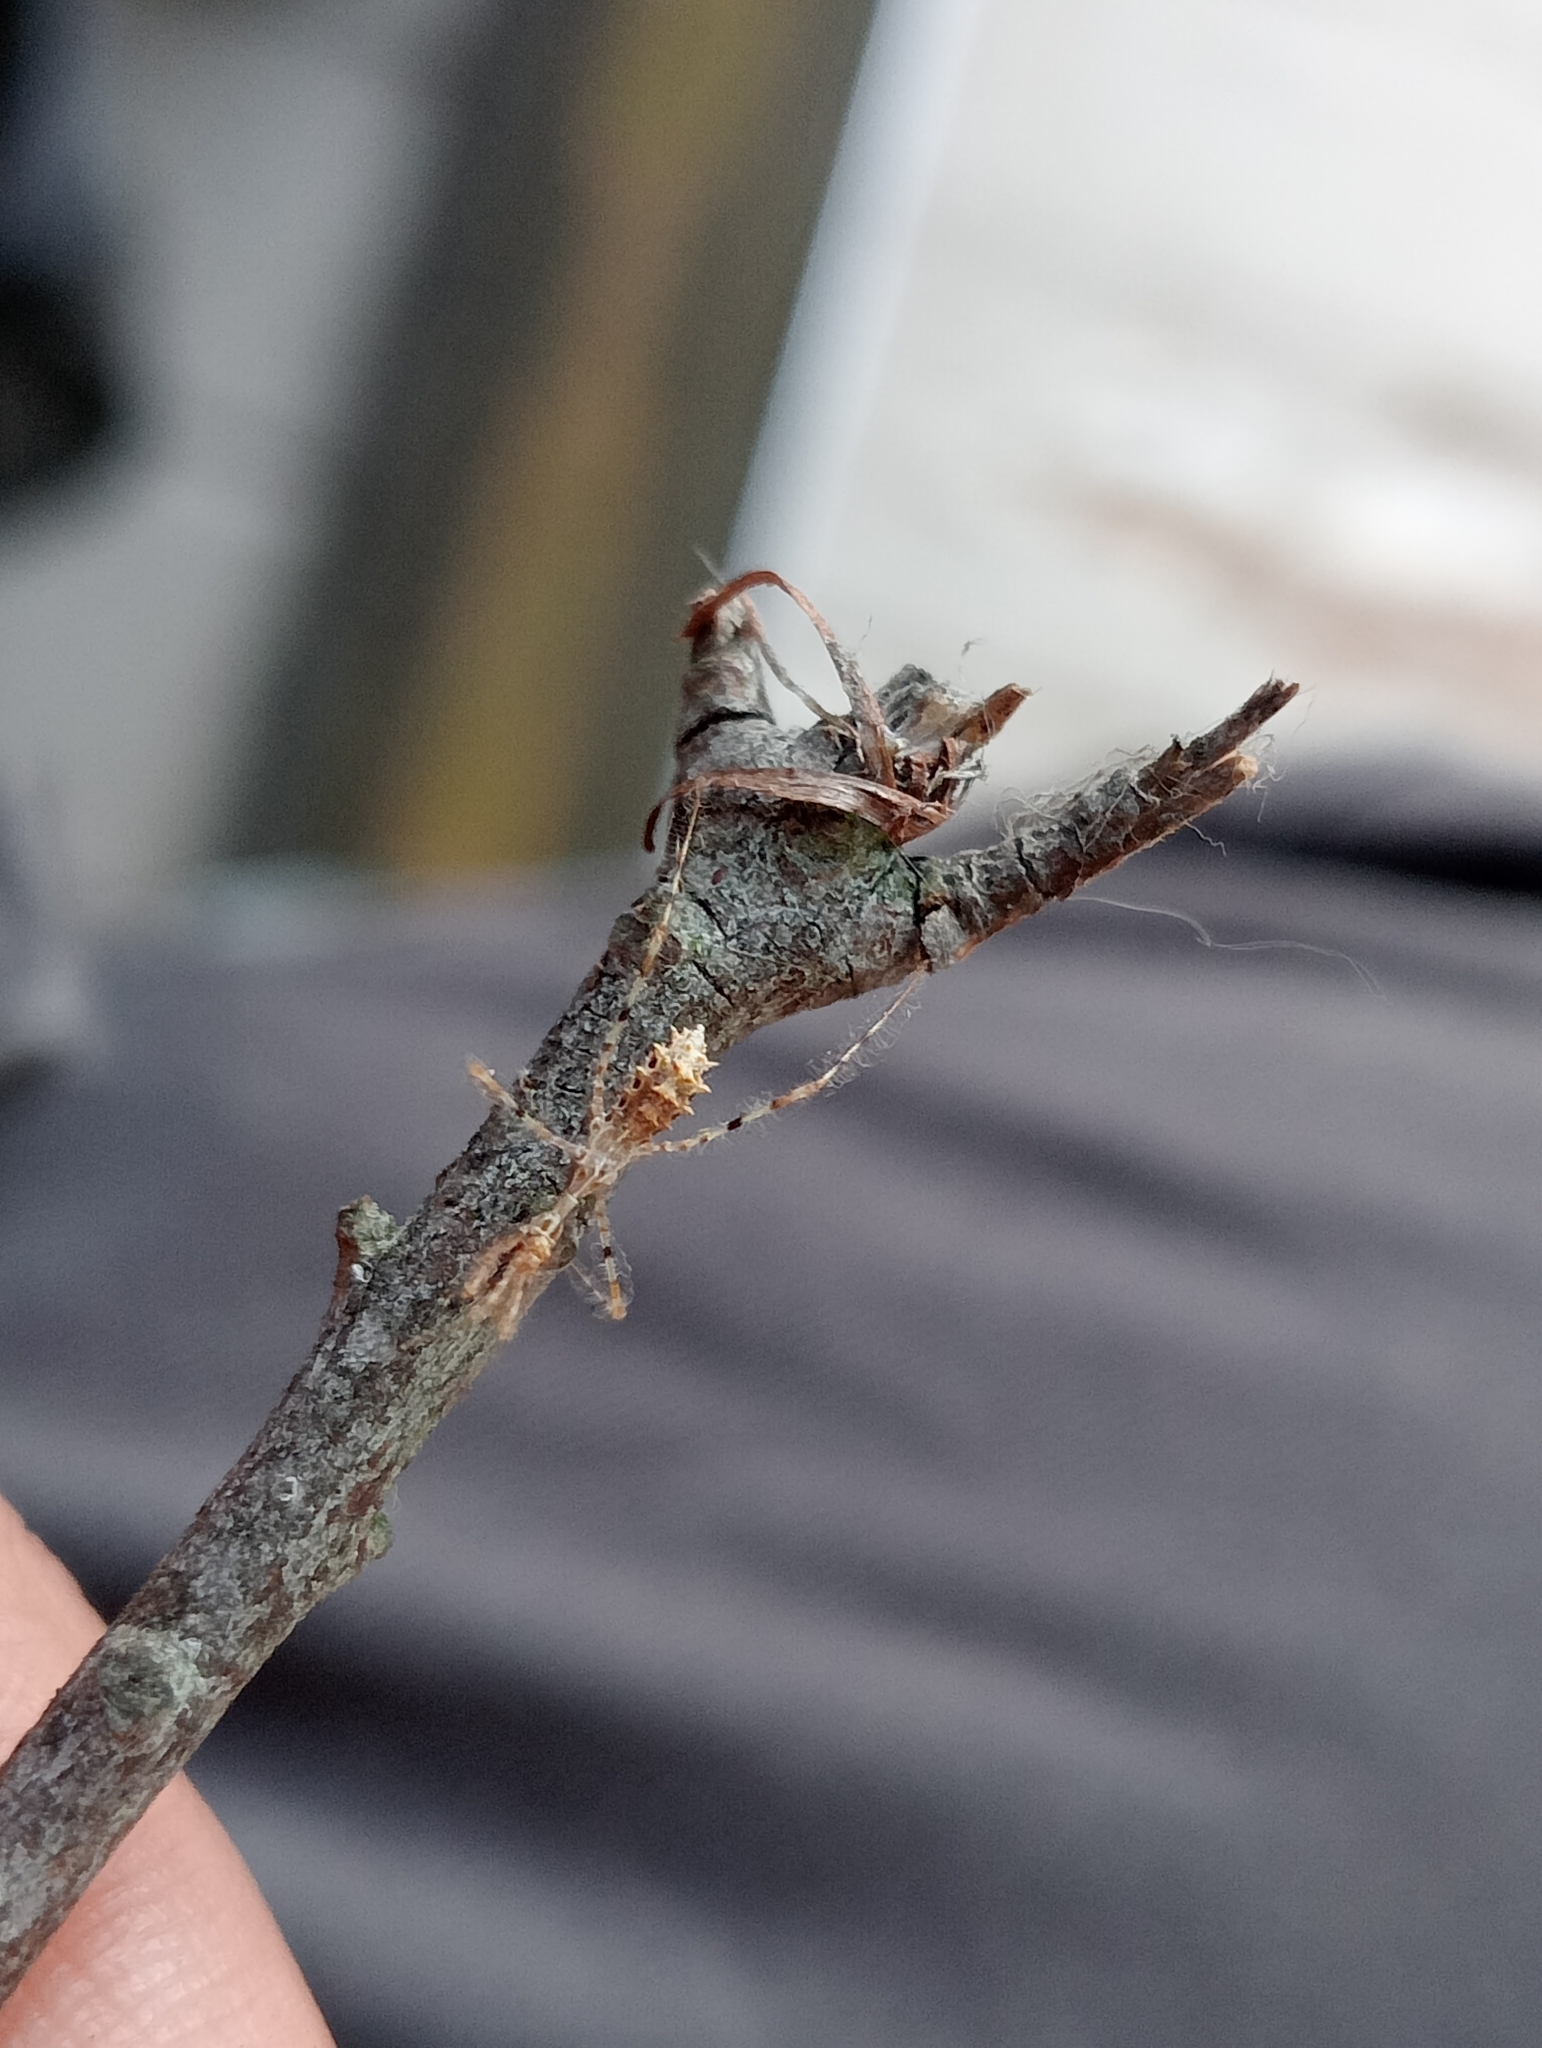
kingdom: Animalia
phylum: Arthropoda
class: Insecta
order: Hemiptera
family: Reduviidae
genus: Stenolemus
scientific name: Stenolemus fraterculus
